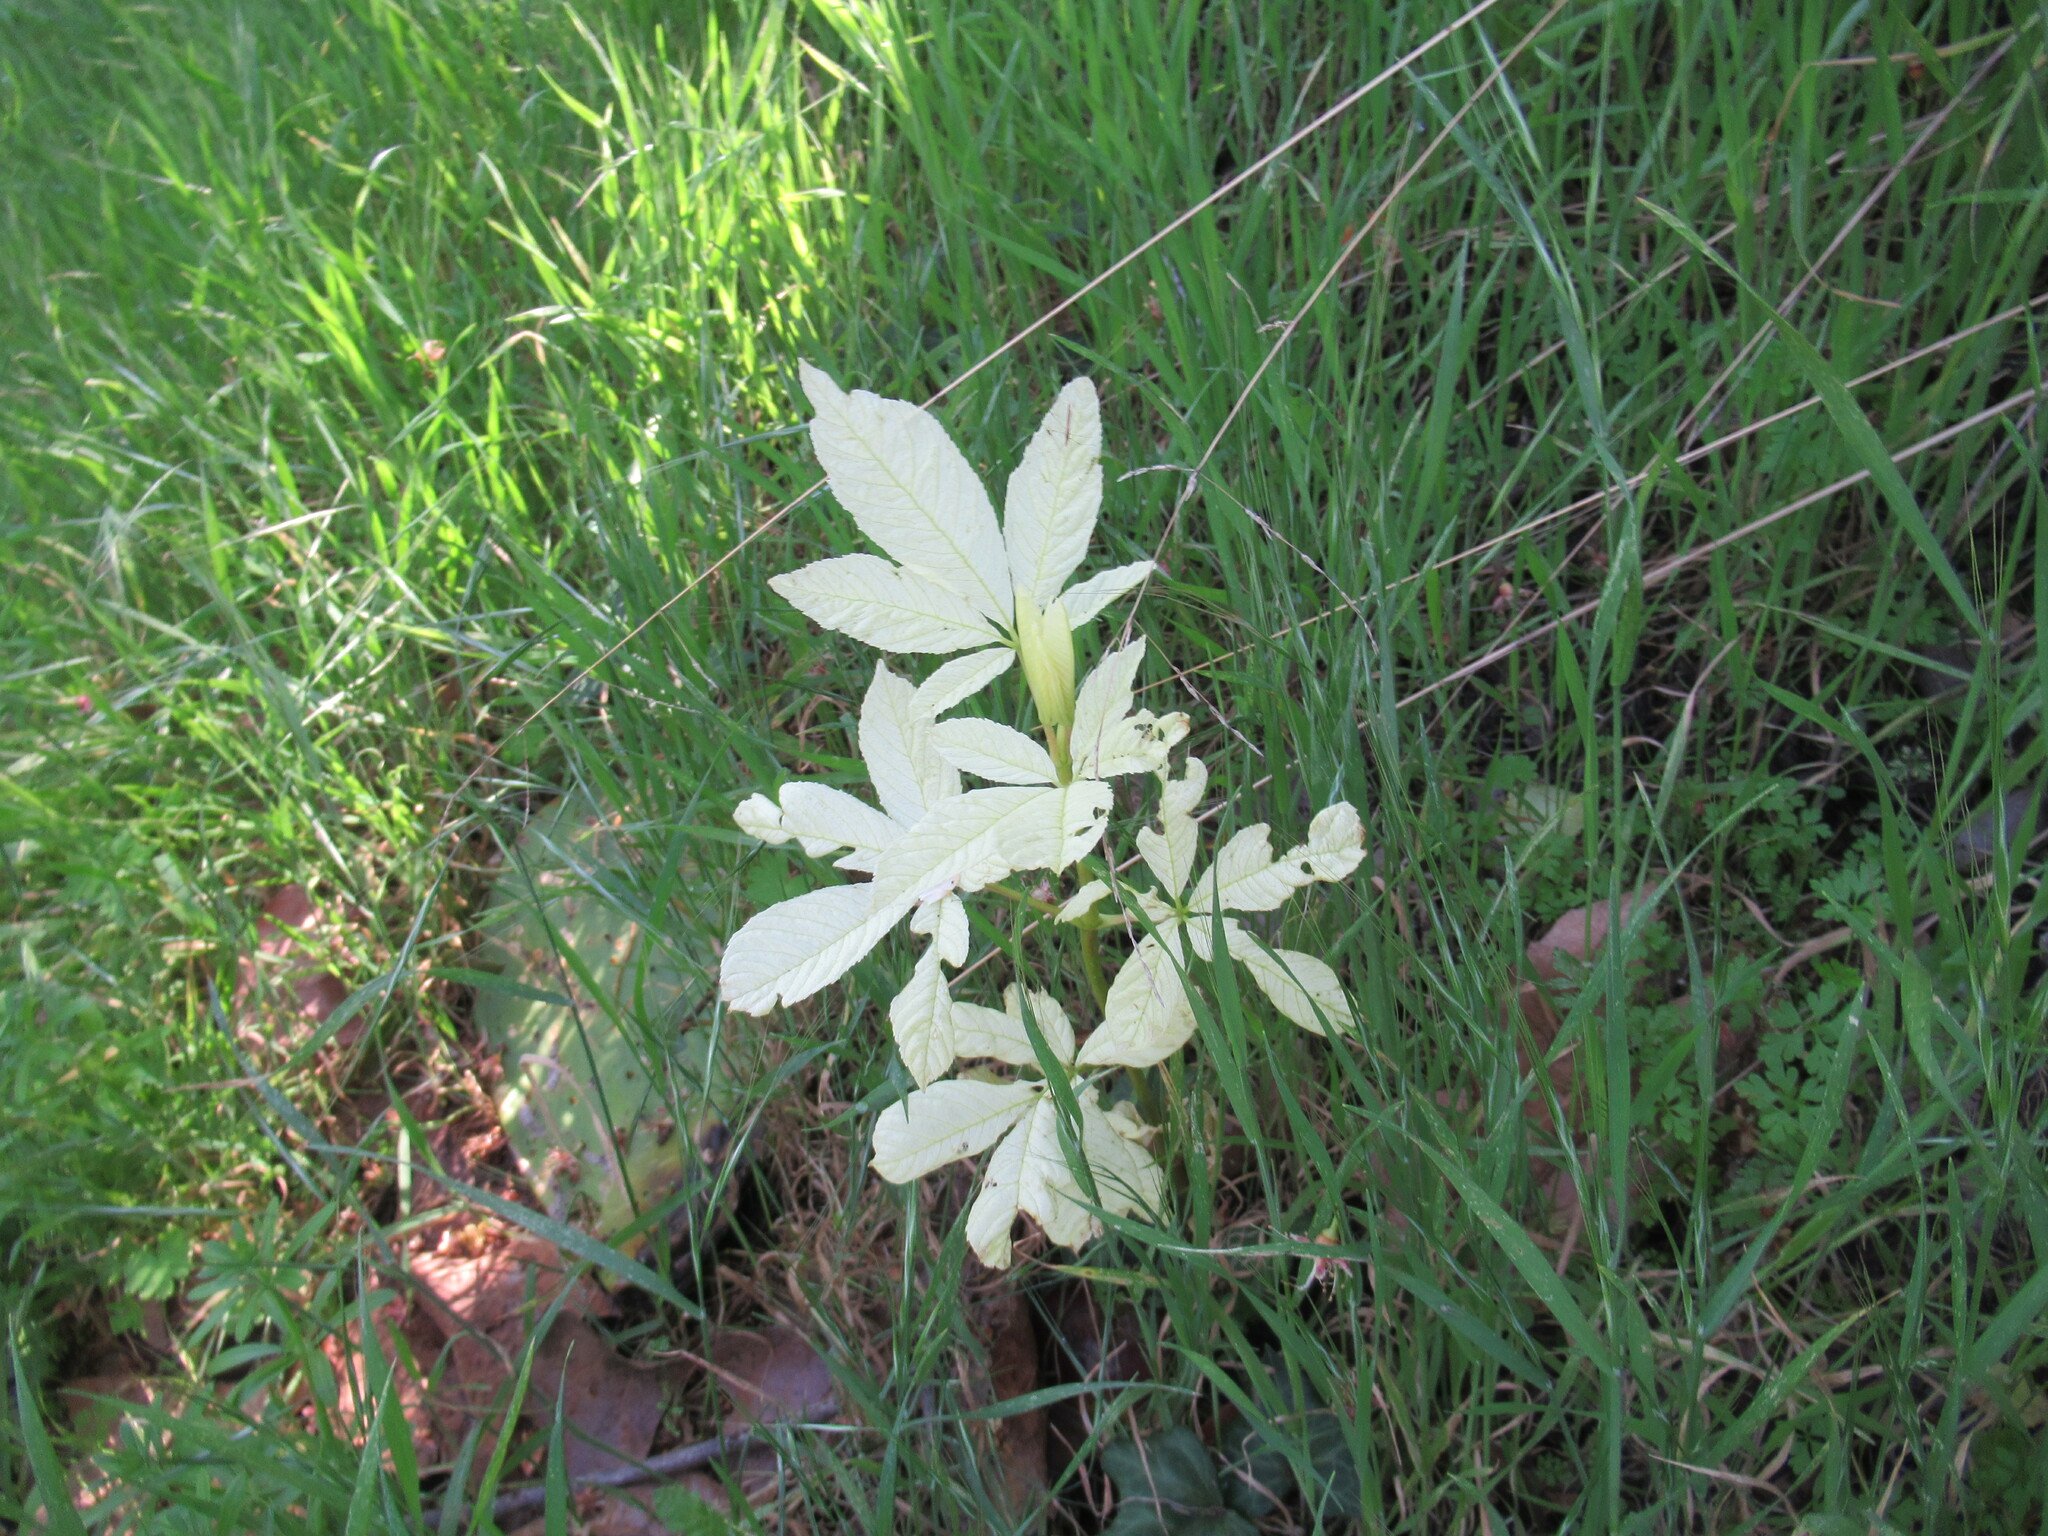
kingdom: Plantae
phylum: Tracheophyta
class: Magnoliopsida
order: Sapindales
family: Sapindaceae
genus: Aesculus
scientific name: Aesculus californica
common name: California buckeye
